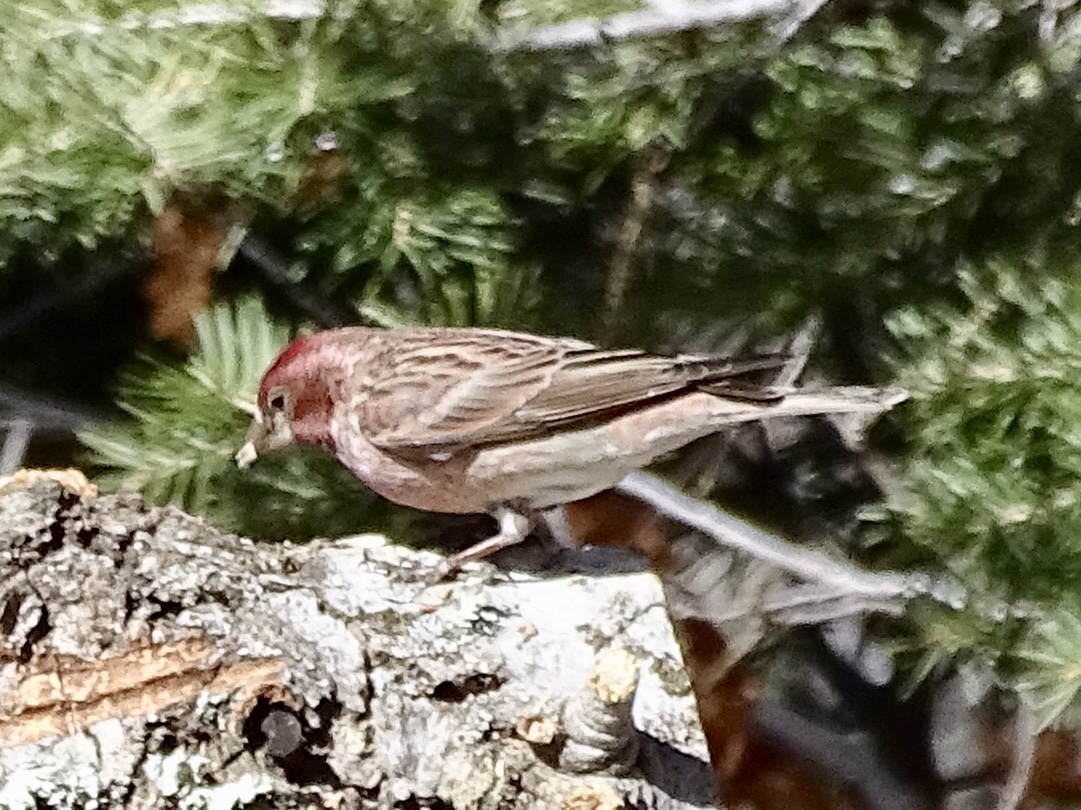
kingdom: Animalia
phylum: Chordata
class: Aves
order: Passeriformes
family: Fringillidae
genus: Haemorhous
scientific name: Haemorhous cassinii
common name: Cassin's finch
